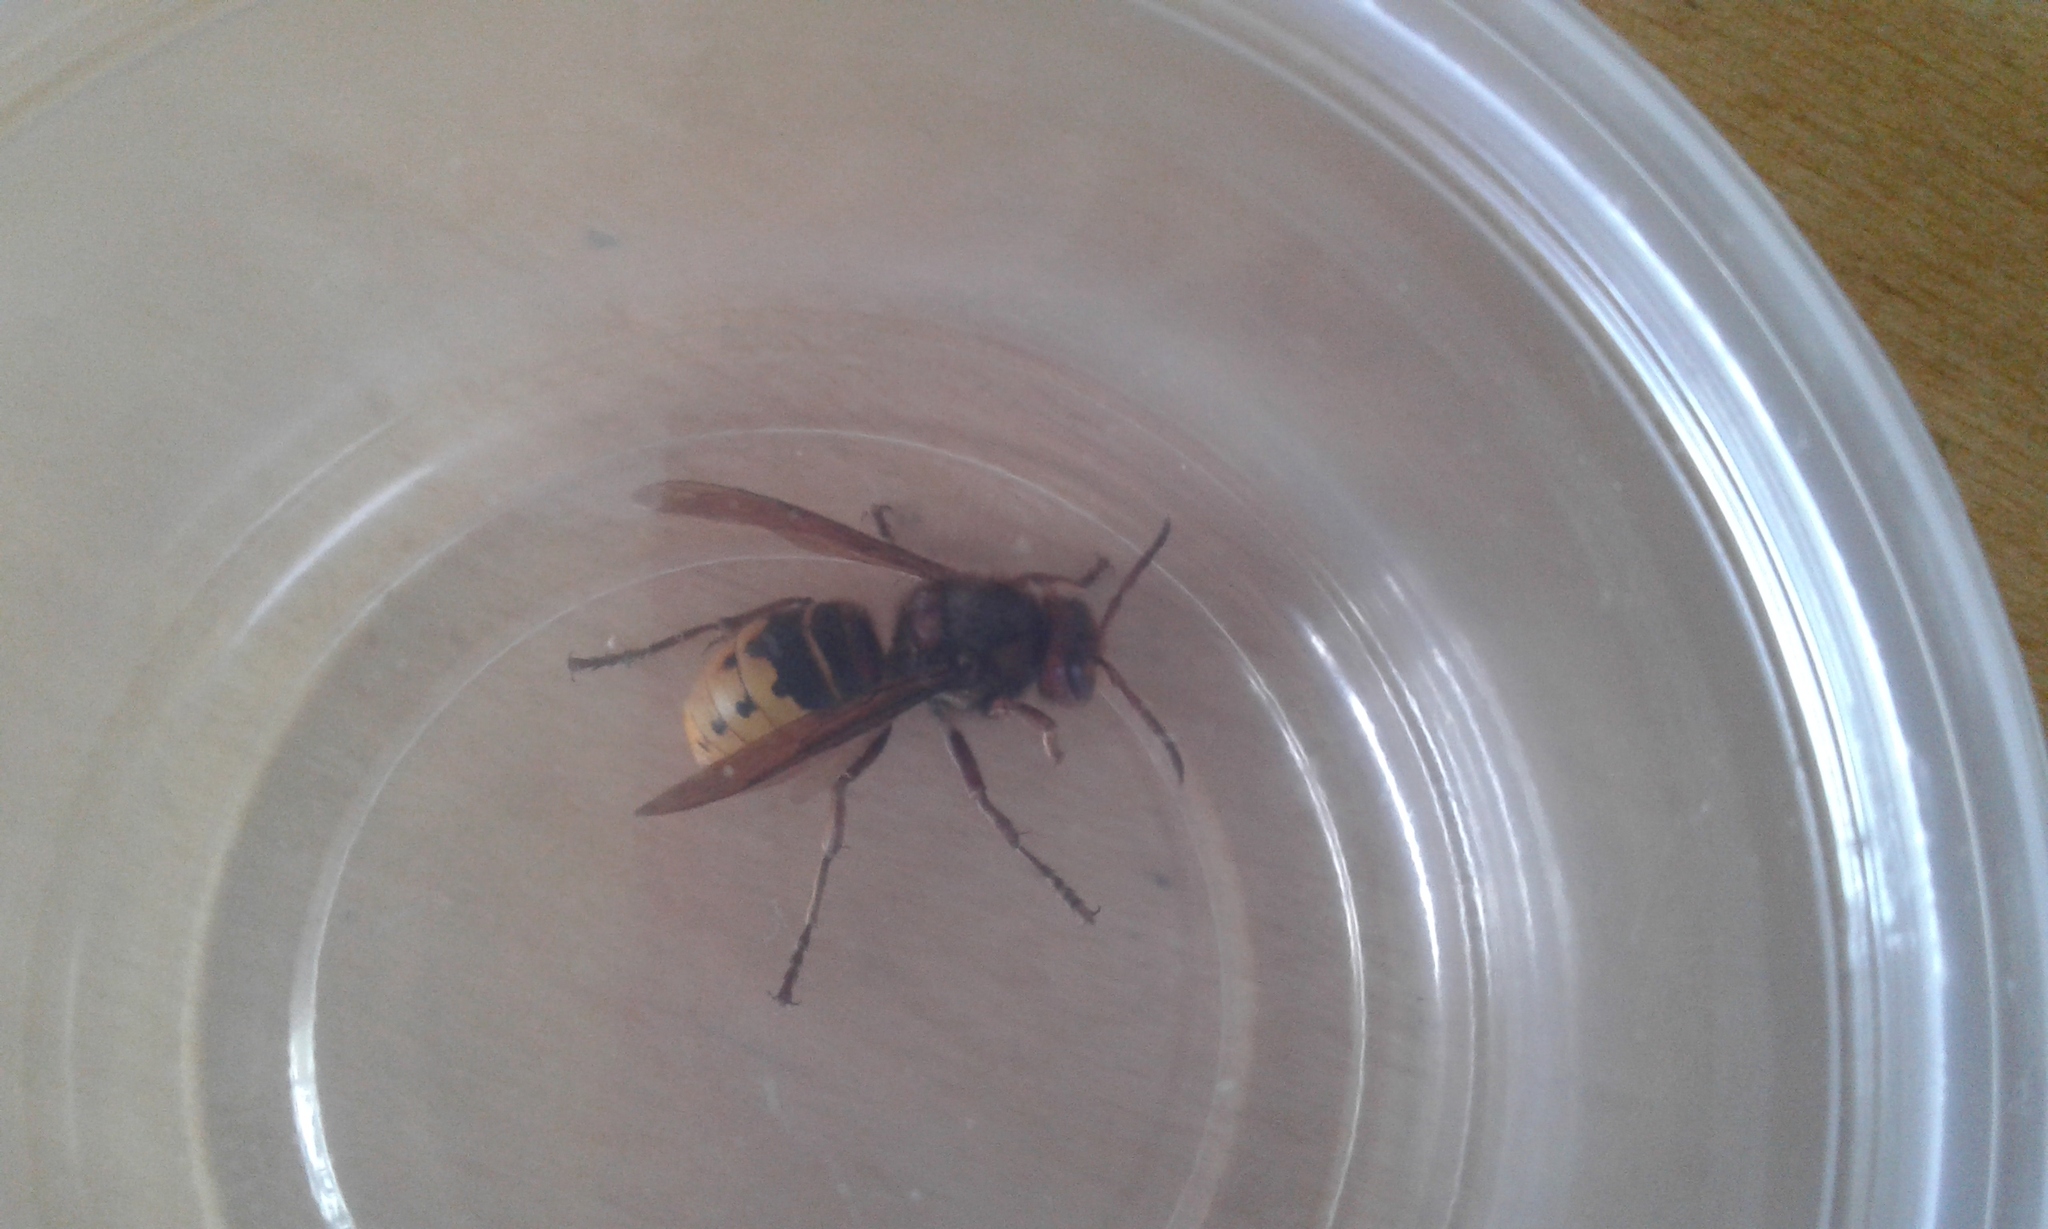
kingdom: Animalia
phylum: Arthropoda
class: Insecta
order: Hymenoptera
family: Vespidae
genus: Vespa
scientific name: Vespa crabro
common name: Hornet
